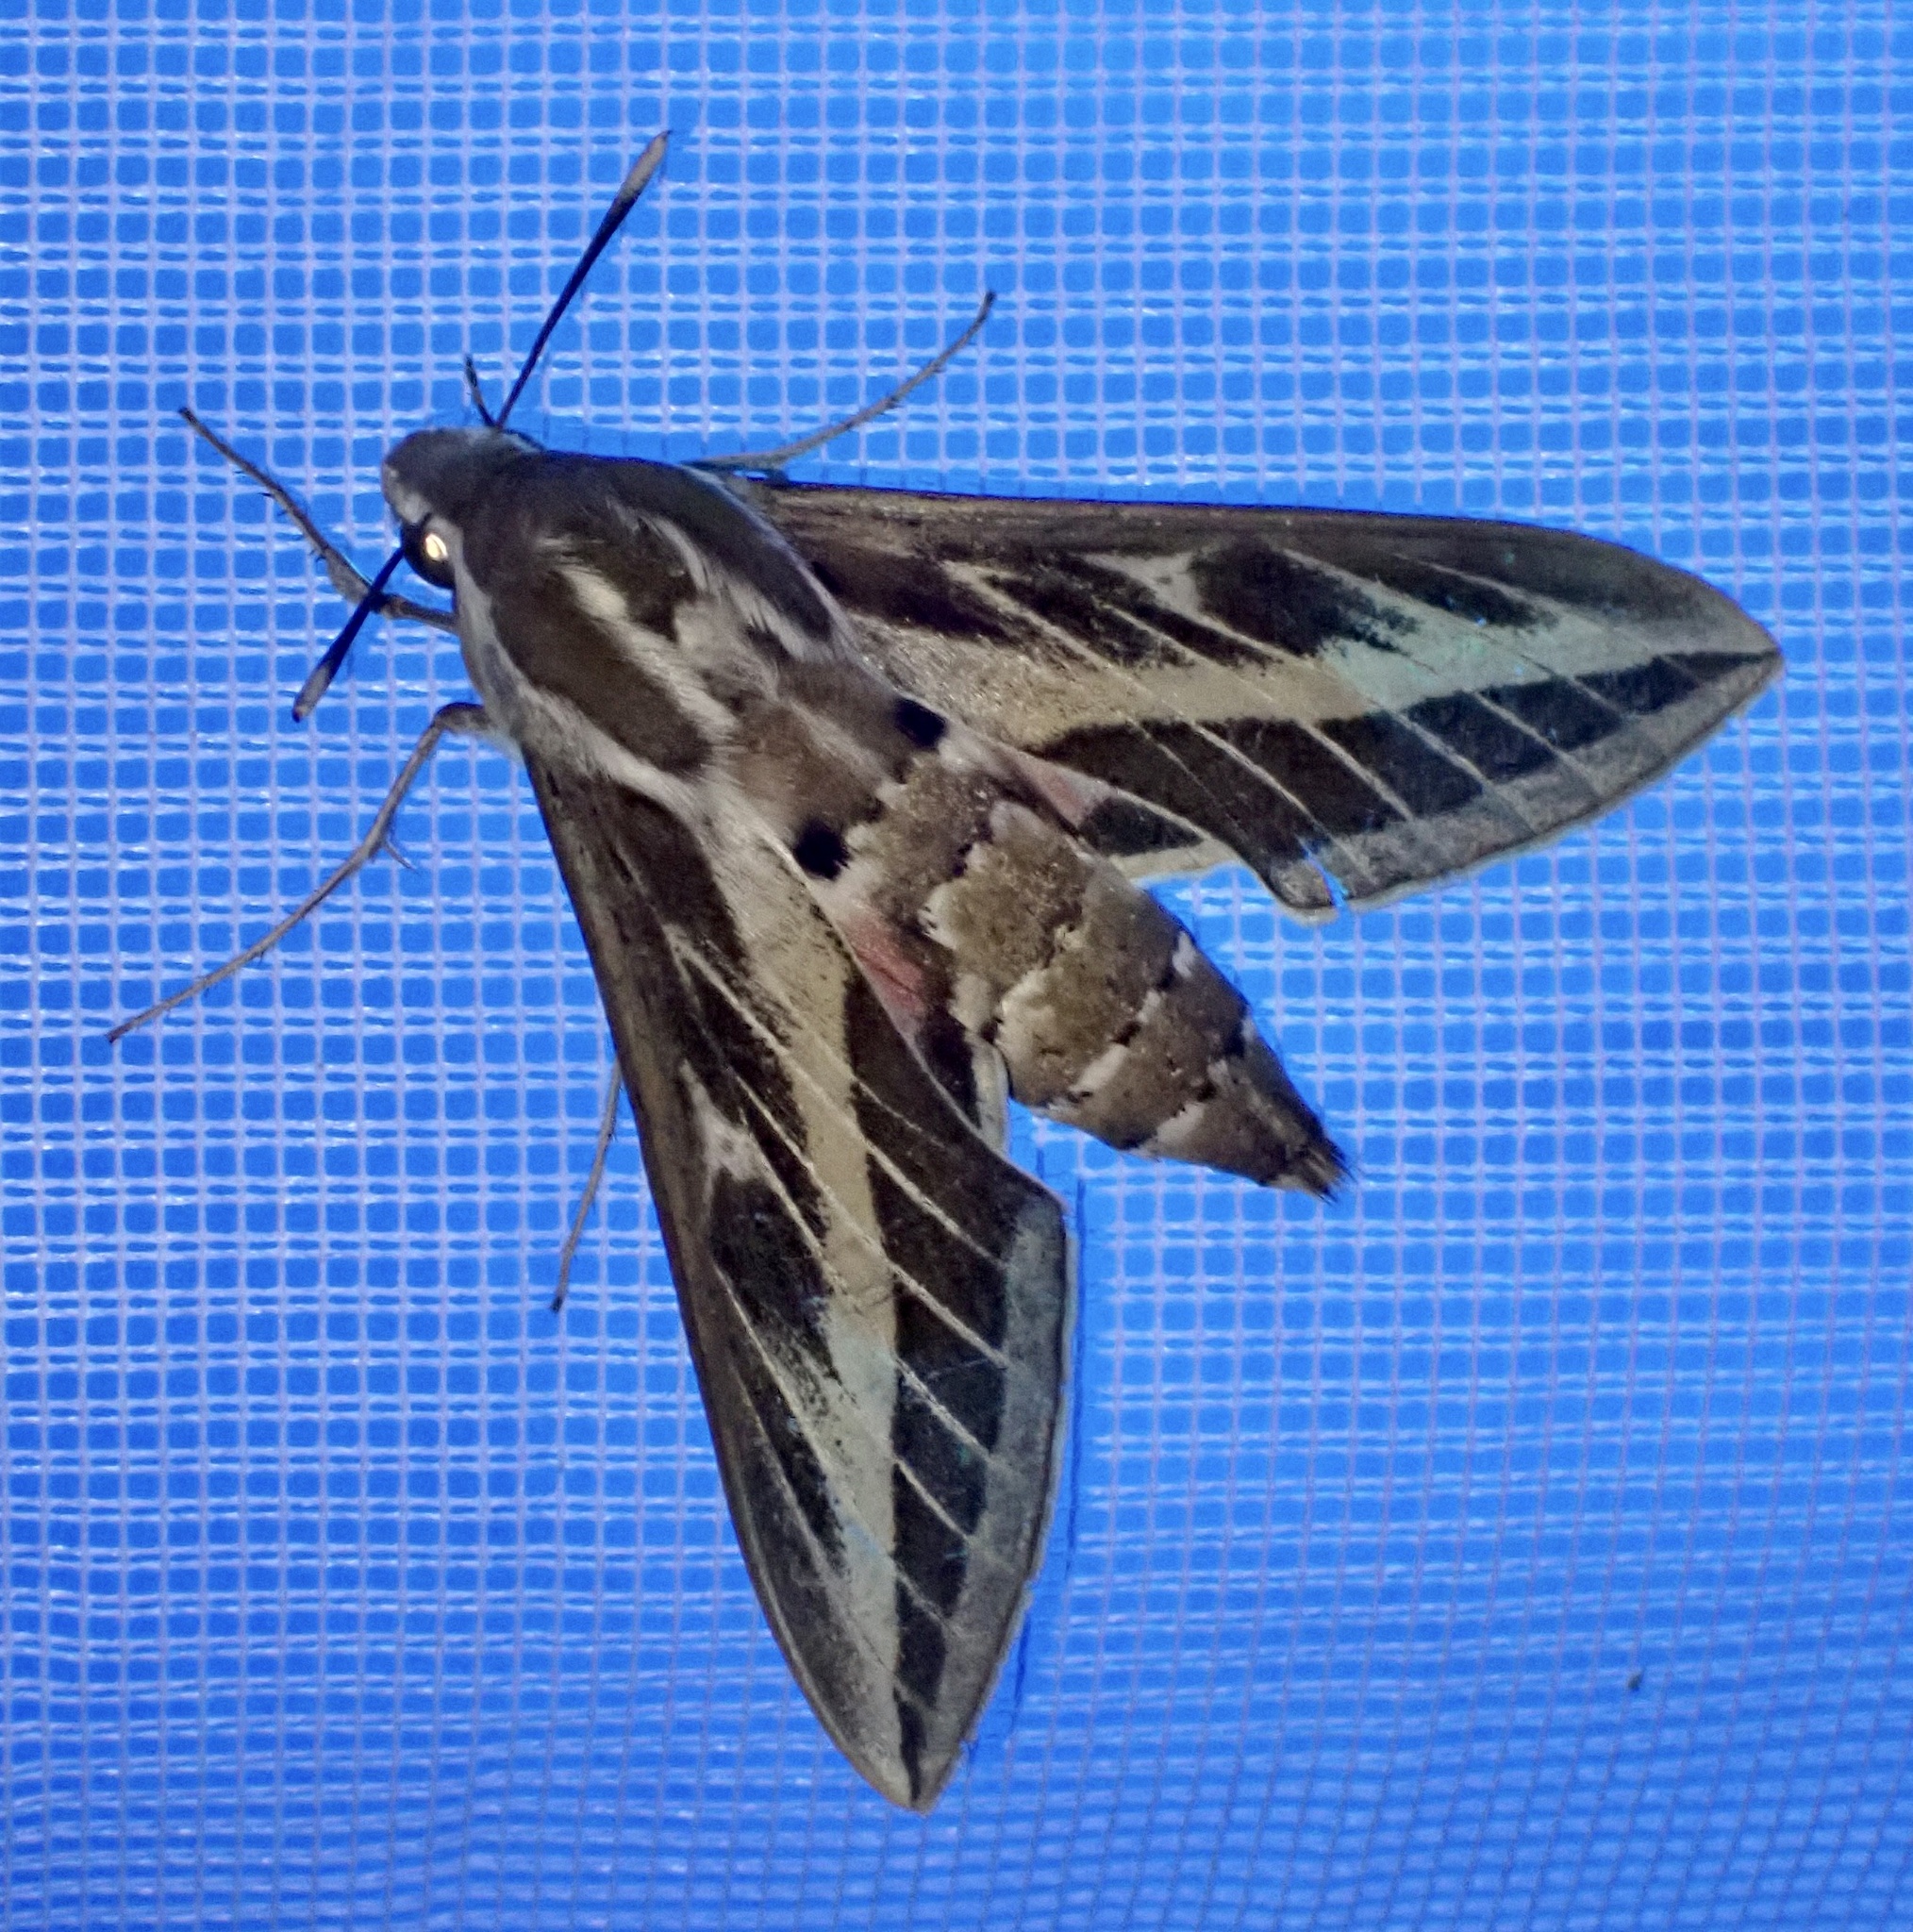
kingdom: Animalia
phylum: Arthropoda
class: Insecta
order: Lepidoptera
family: Sphingidae
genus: Hyles
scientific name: Hyles livornica
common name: Striped hawk-moth
